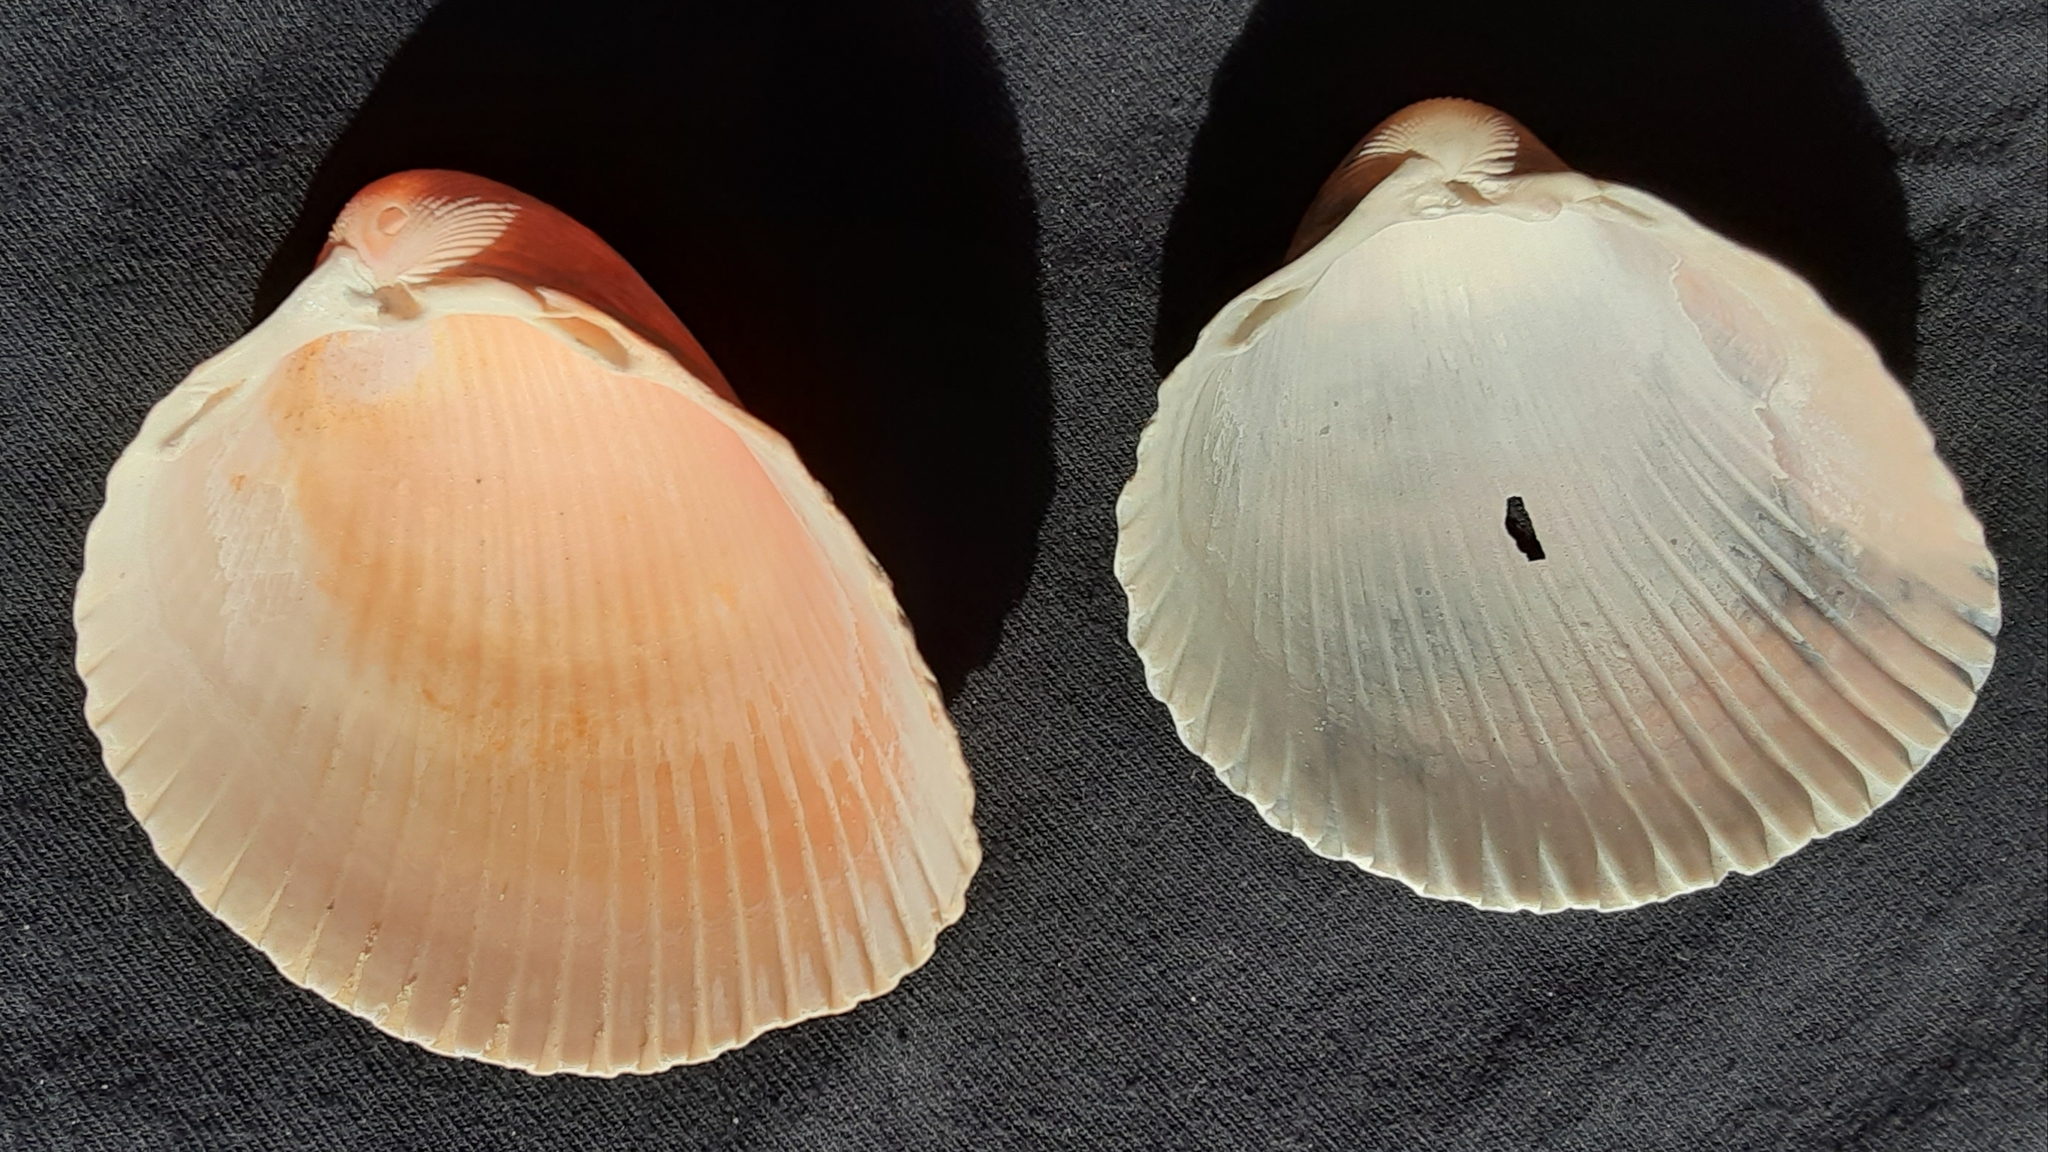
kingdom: Animalia
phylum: Mollusca
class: Bivalvia
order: Cardiida
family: Cardiidae
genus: Dinocardium
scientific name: Dinocardium robustum
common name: Atlantic giant cockle
